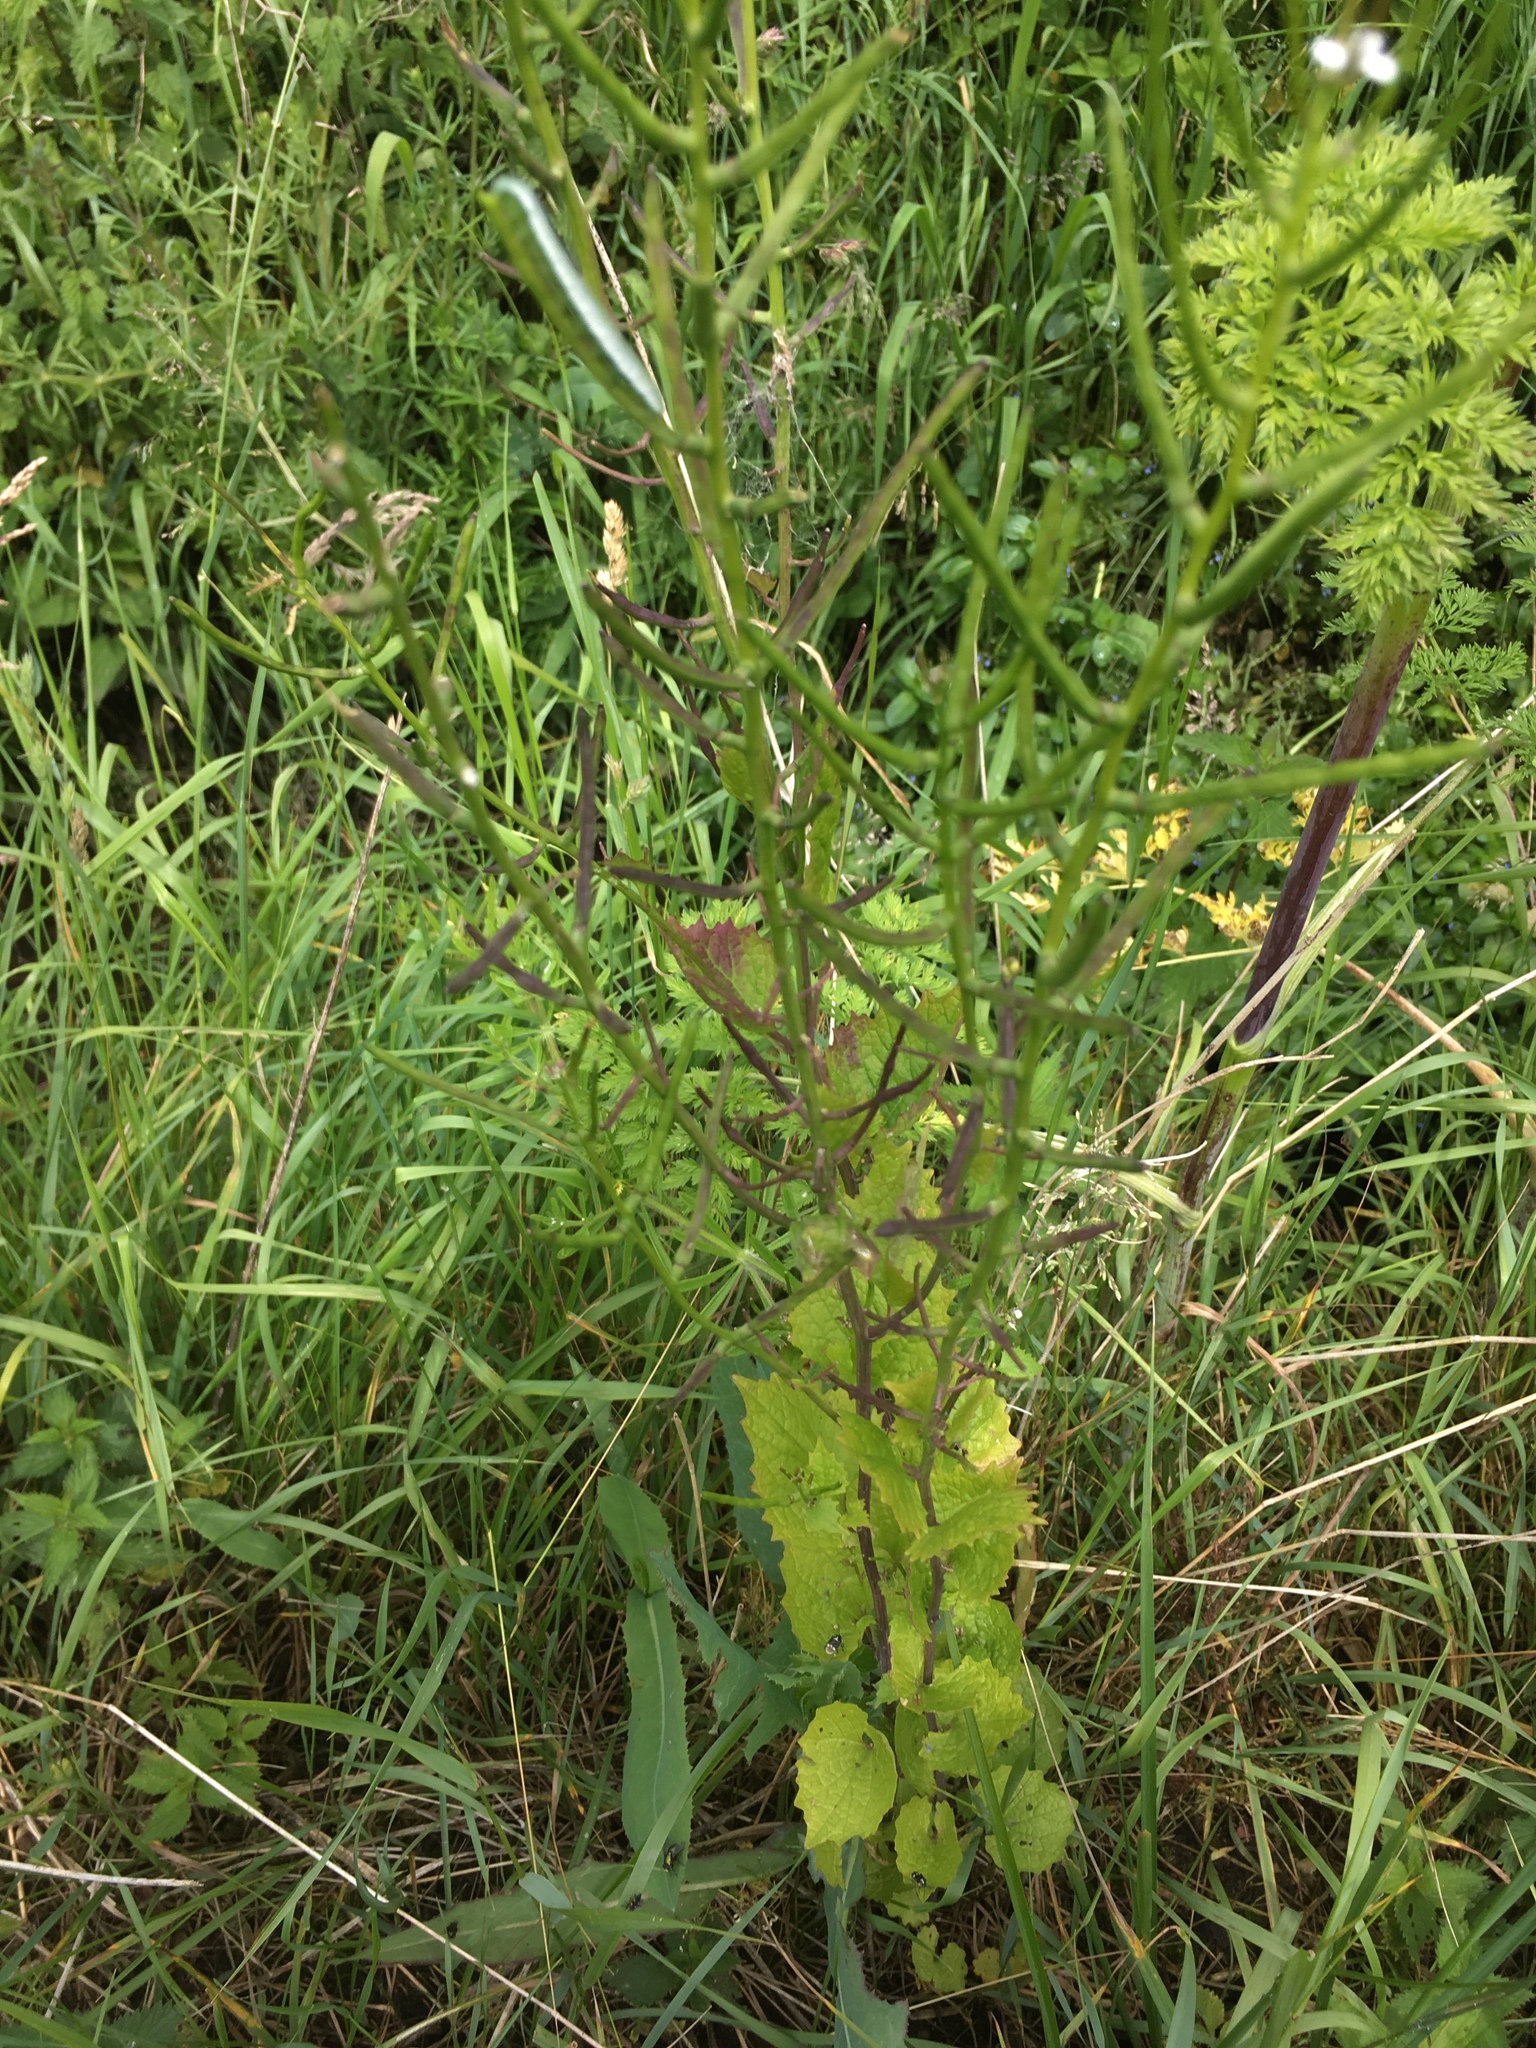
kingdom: Plantae
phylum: Tracheophyta
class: Magnoliopsida
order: Brassicales
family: Brassicaceae
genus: Alliaria
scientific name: Alliaria petiolata
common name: Garlic mustard
